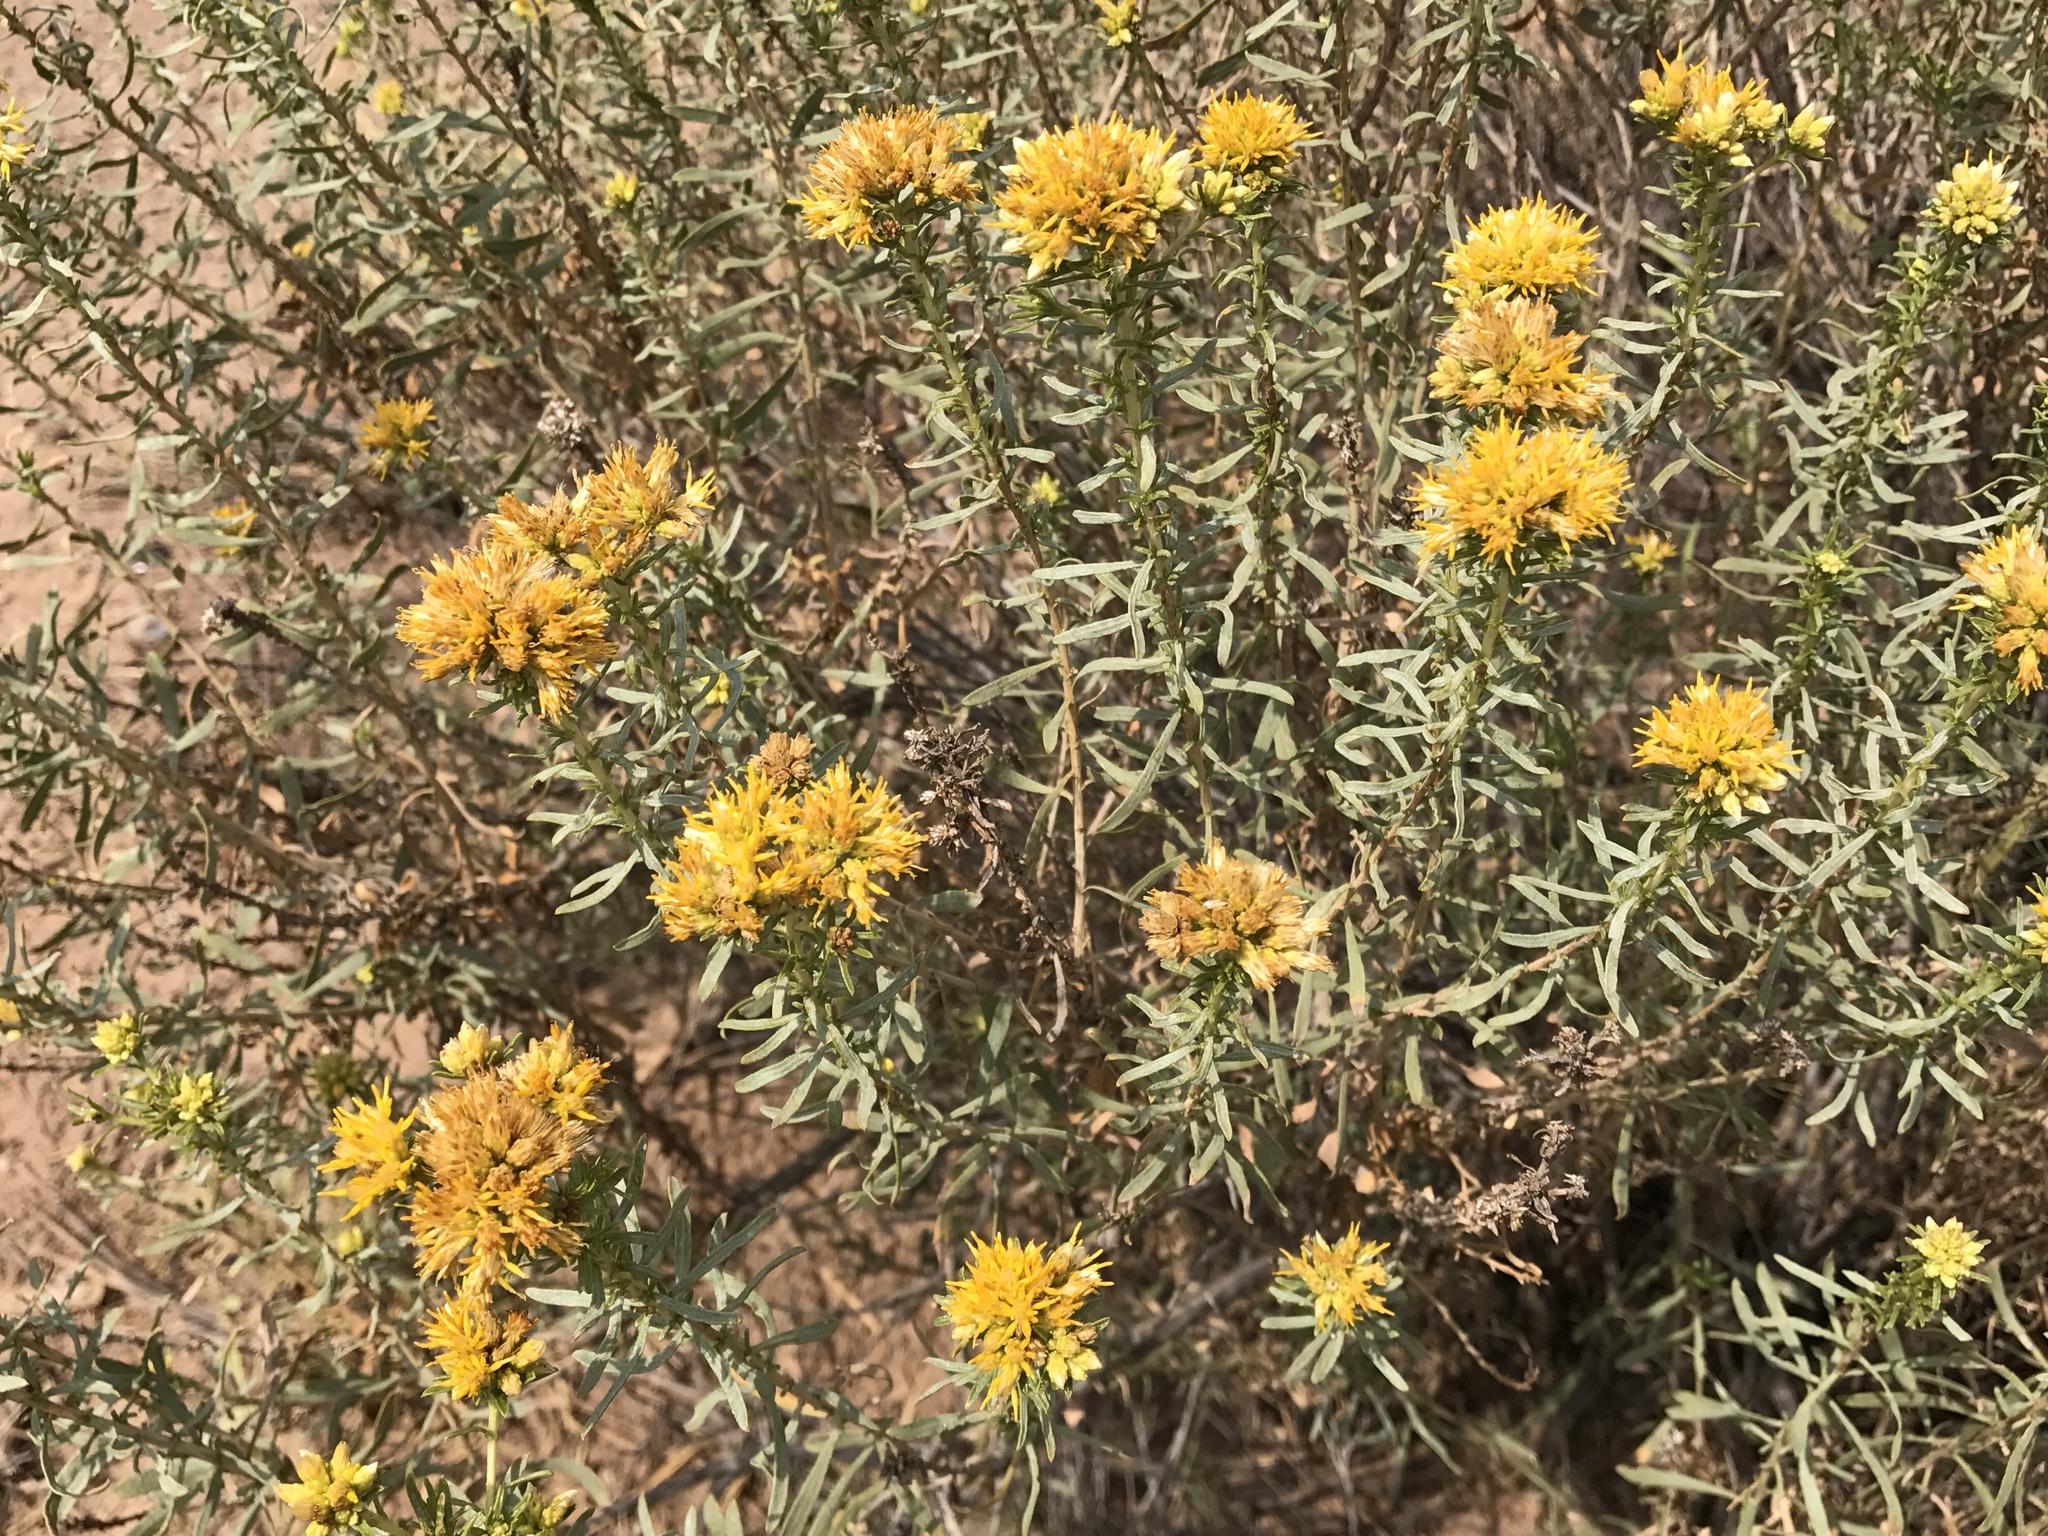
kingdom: Plantae
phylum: Tracheophyta
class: Magnoliopsida
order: Asterales
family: Asteraceae
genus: Isocoma
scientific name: Isocoma acradenia
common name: Alkali jimmyweed
